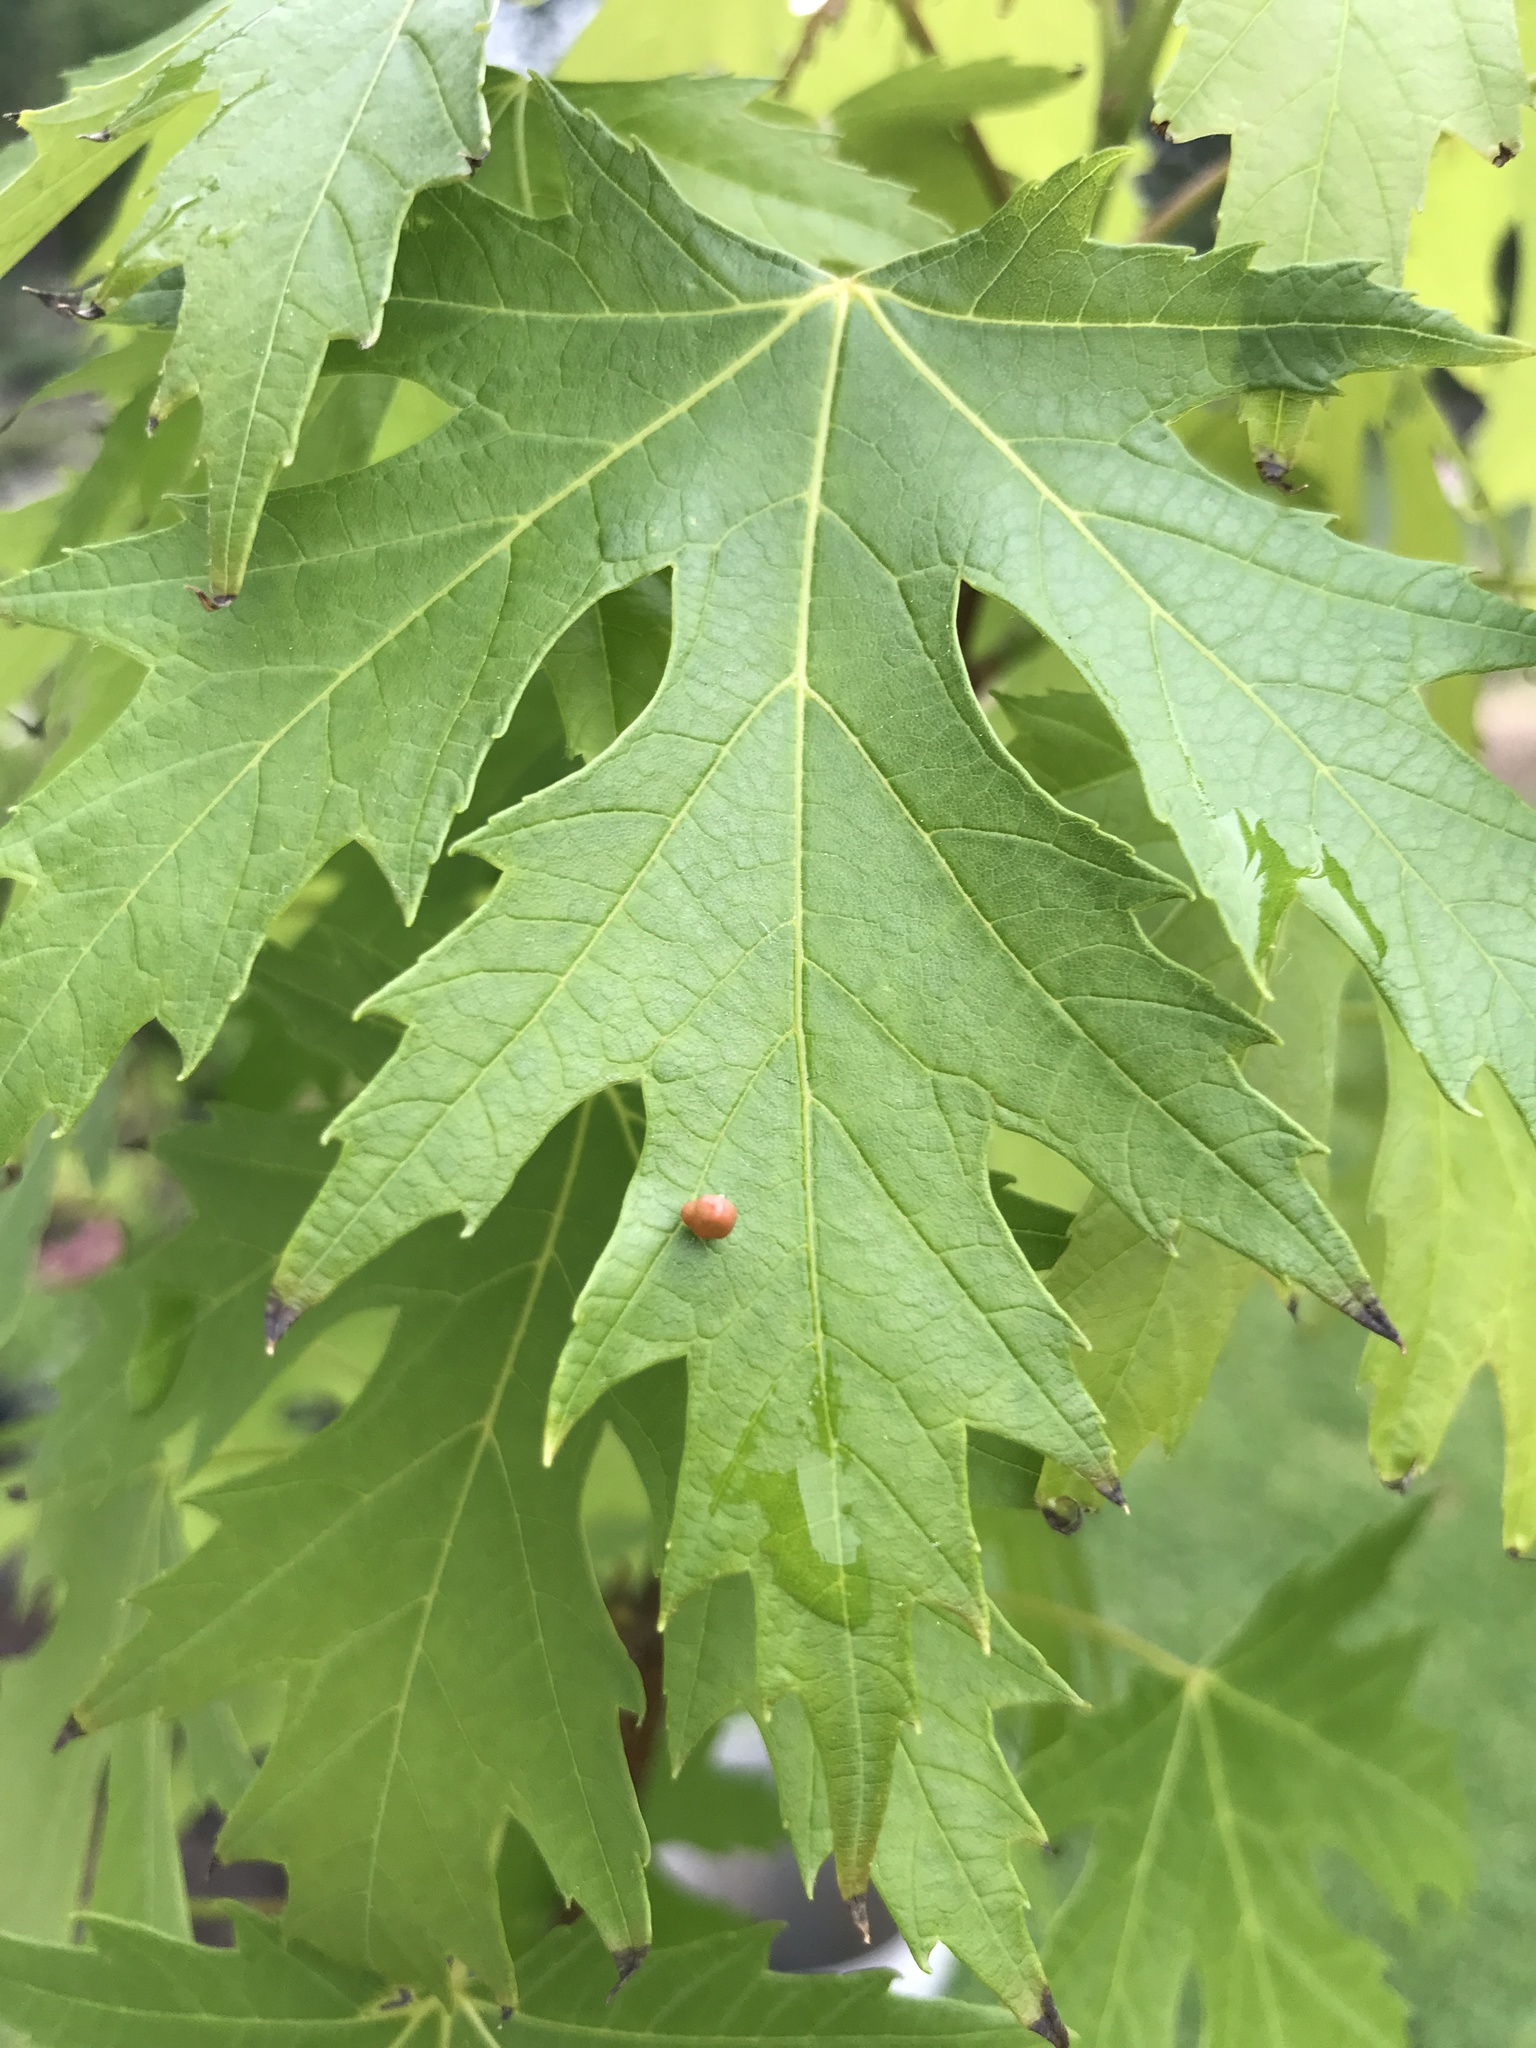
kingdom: Animalia
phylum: Arthropoda
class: Arachnida
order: Trombidiformes
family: Eriophyidae
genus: Vasates
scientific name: Vasates quadripedes
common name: Maple bladder gall mite
